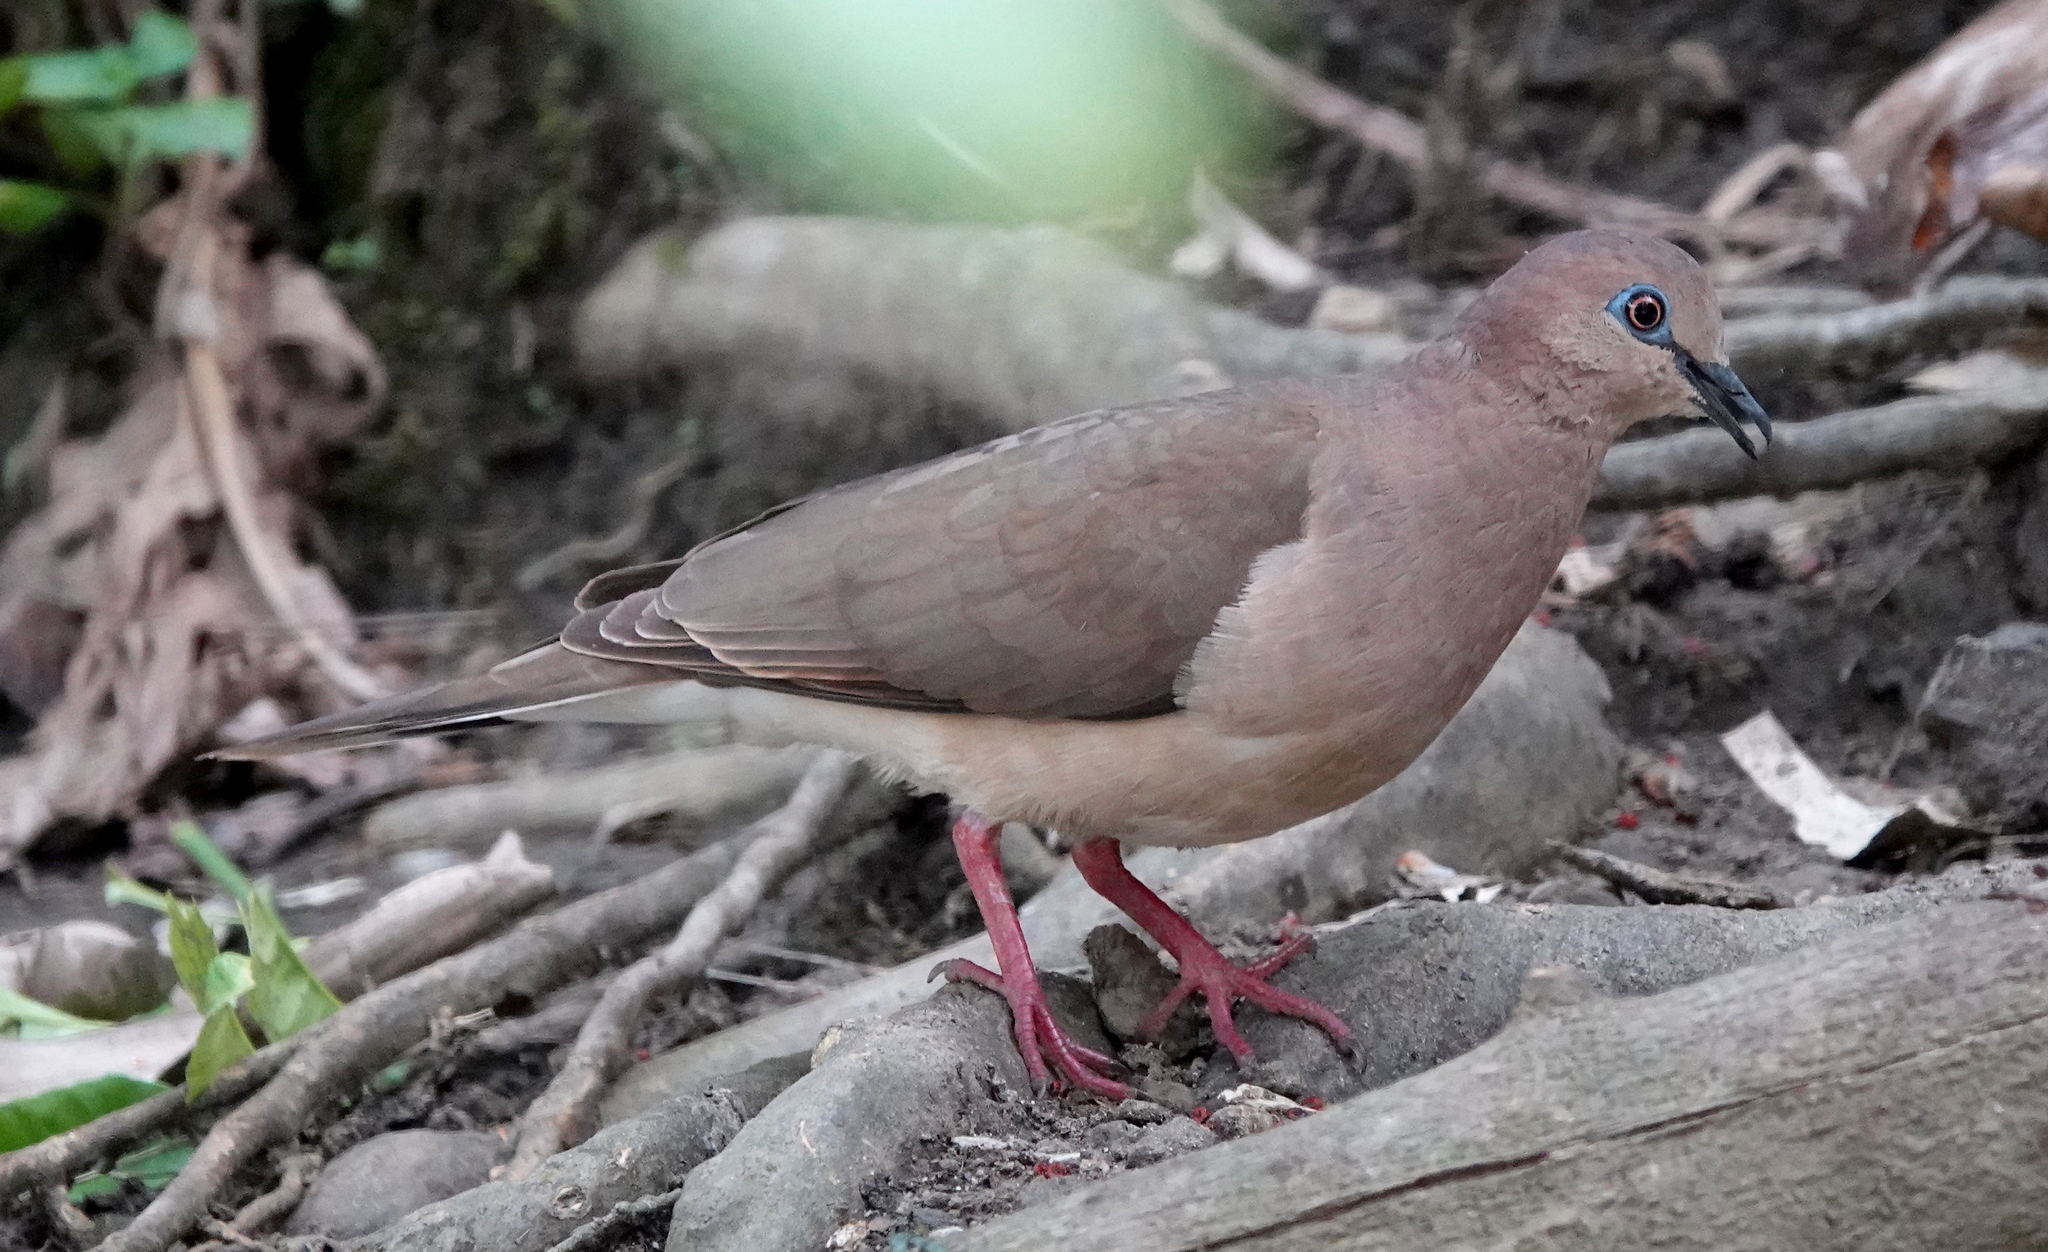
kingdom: Animalia
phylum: Chordata
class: Aves
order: Columbiformes
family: Columbidae
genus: Leptotila
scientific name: Leptotila verreauxi
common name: White-tipped dove
